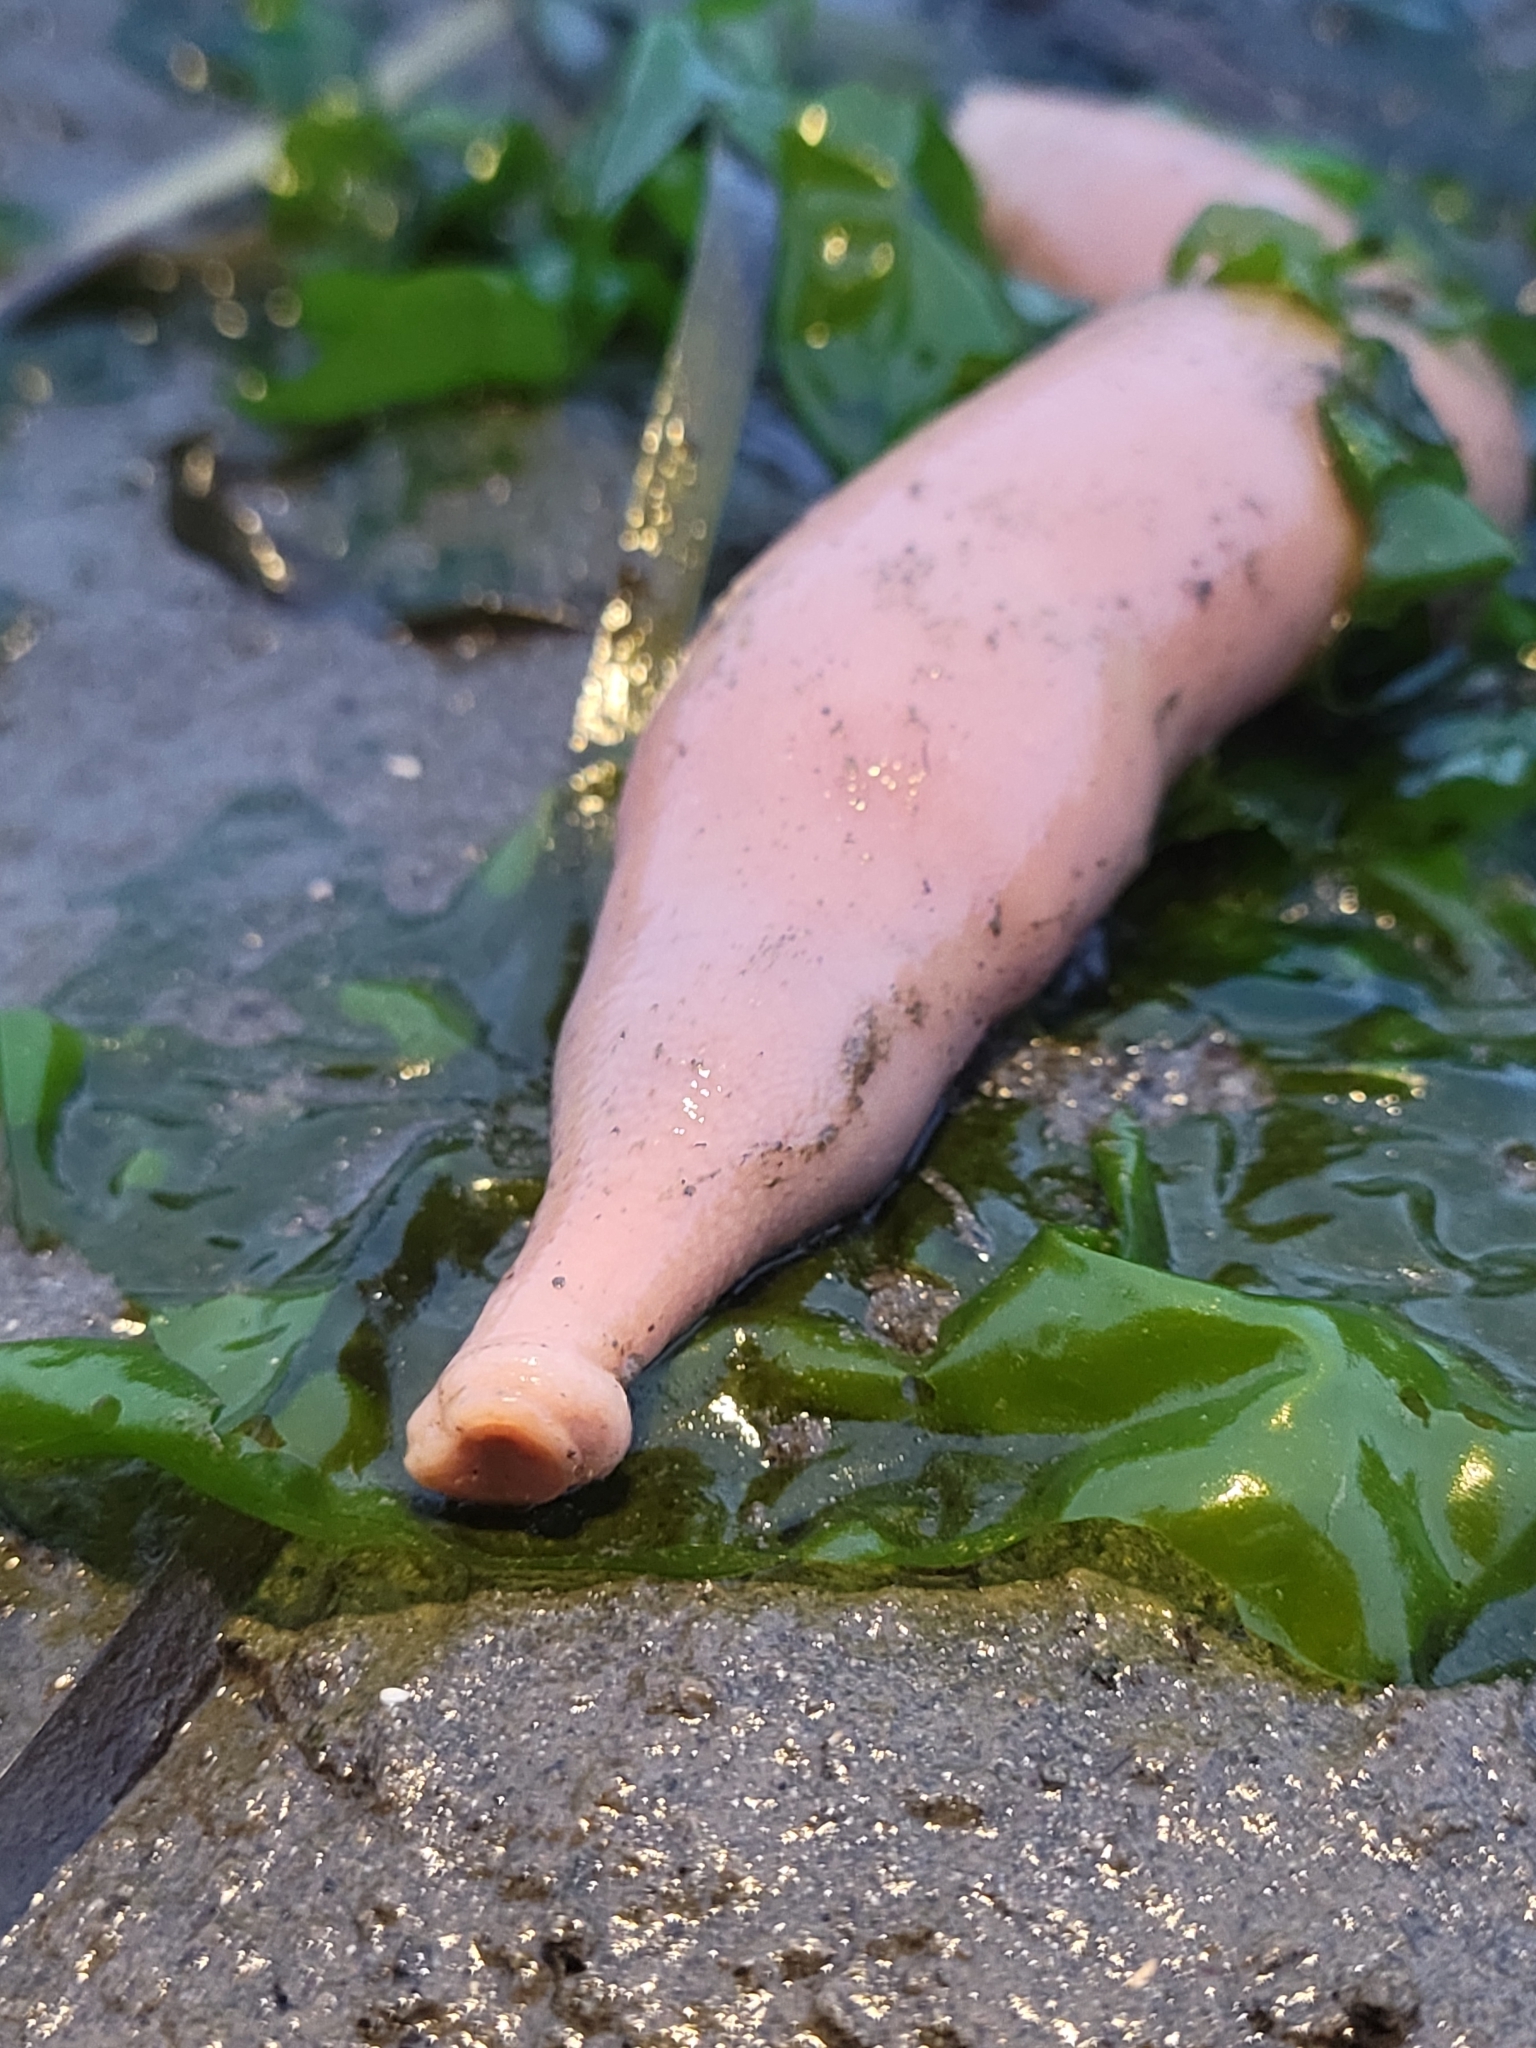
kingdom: Animalia
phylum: Annelida
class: Polychaeta
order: Echiuroidea
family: Urechidae
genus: Urechis
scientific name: Urechis caupo
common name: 'penis fish' or 'penis worm'
